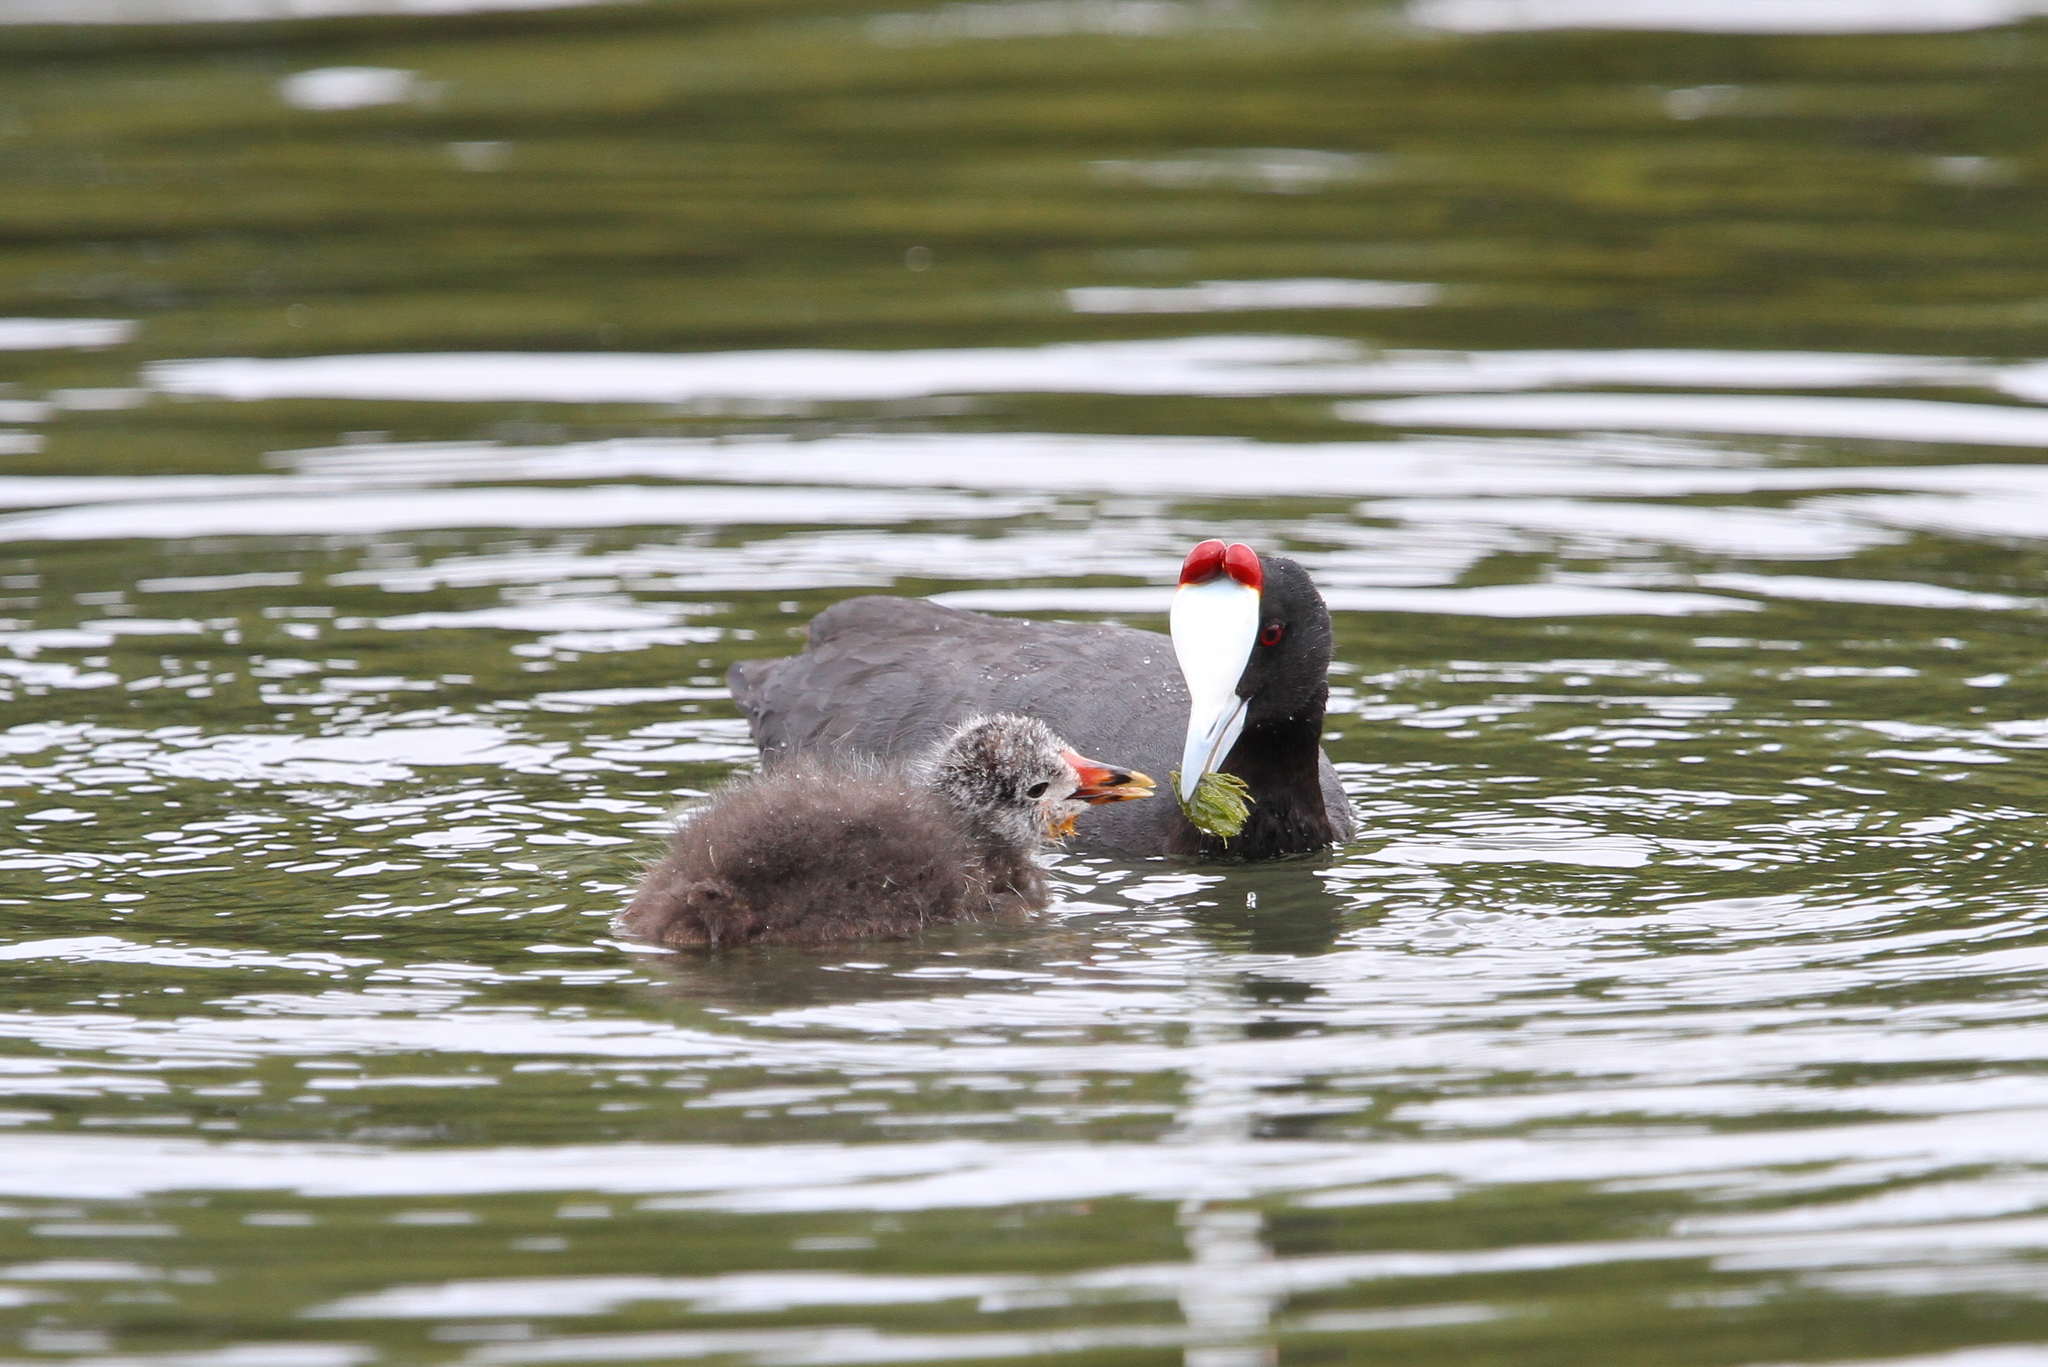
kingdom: Animalia
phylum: Chordata
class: Aves
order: Gruiformes
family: Rallidae
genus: Fulica
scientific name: Fulica cristata
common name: Red-knobbed coot
